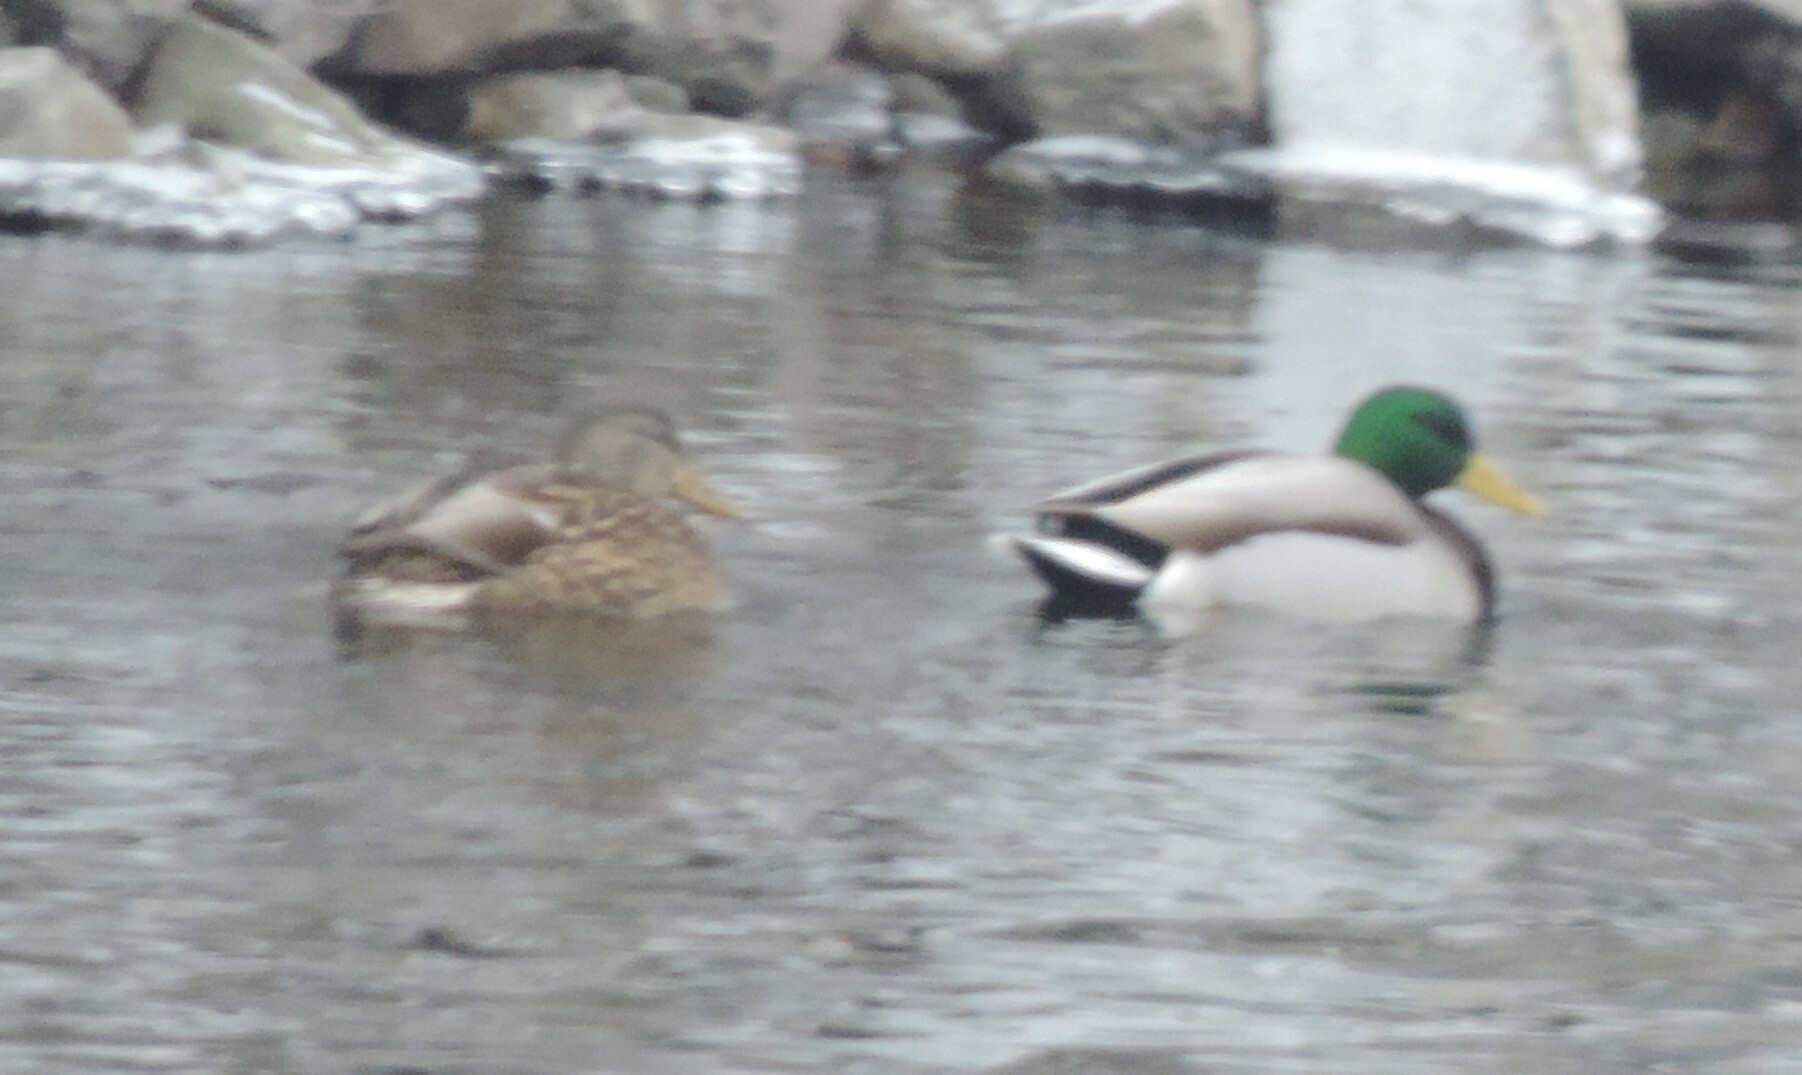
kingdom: Animalia
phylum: Chordata
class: Aves
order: Anseriformes
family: Anatidae
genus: Anas
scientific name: Anas platyrhynchos
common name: Mallard
